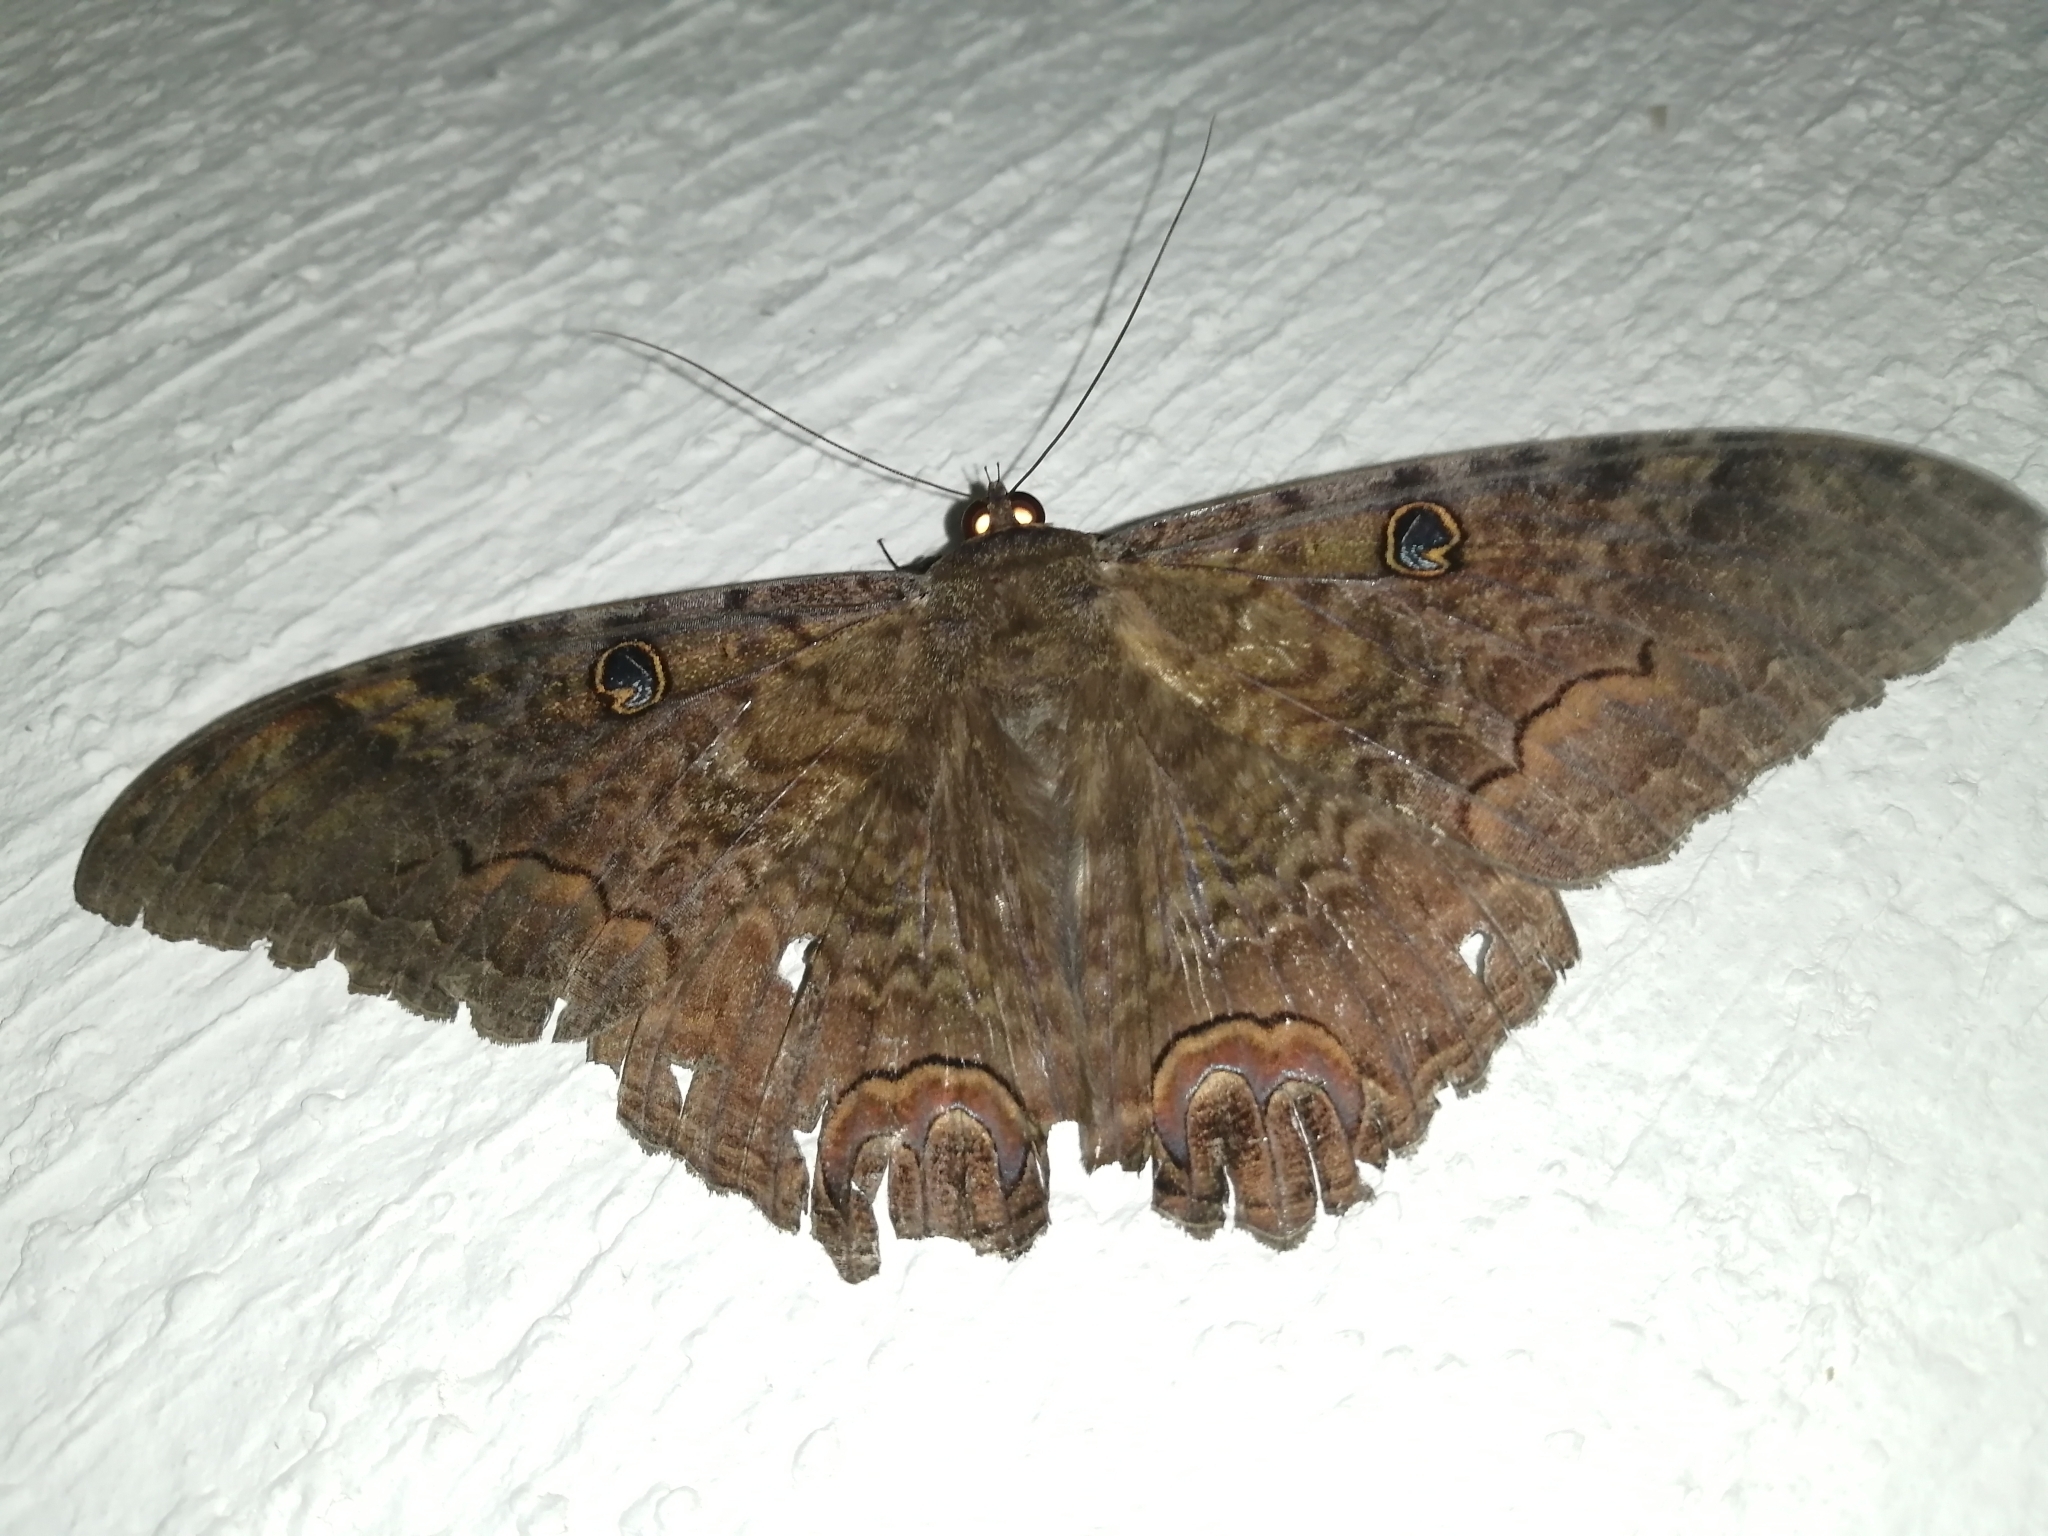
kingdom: Animalia
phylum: Arthropoda
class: Insecta
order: Lepidoptera
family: Erebidae
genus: Ascalapha
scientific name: Ascalapha odorata
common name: Black witch
